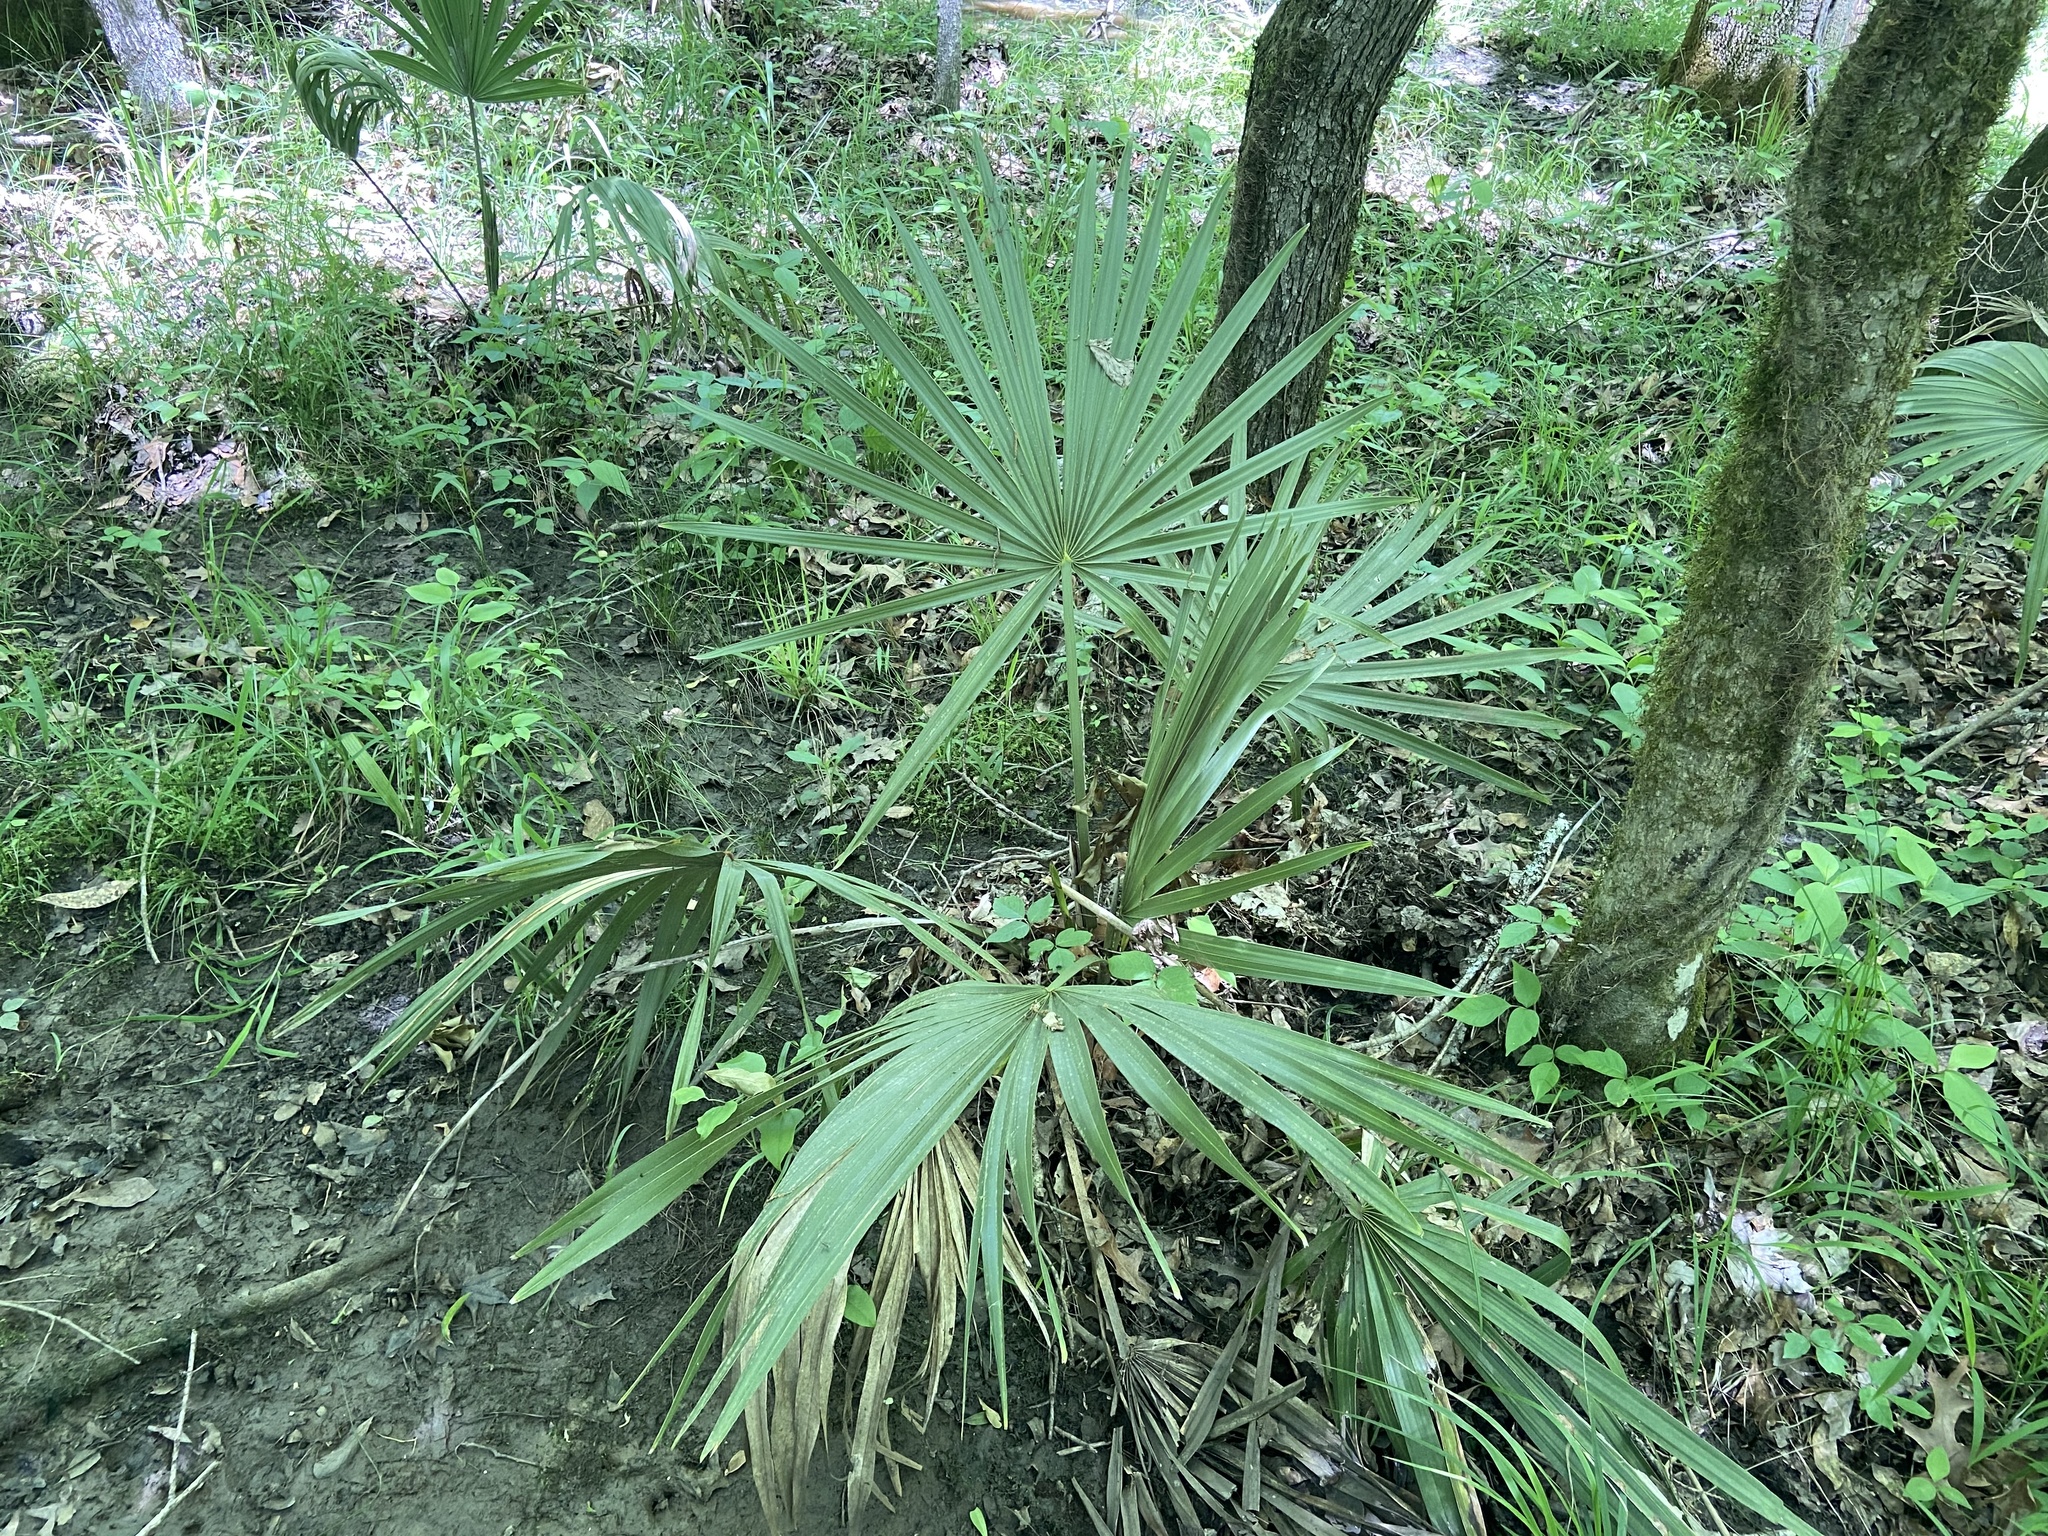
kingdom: Plantae
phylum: Tracheophyta
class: Liliopsida
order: Arecales
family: Arecaceae
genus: Sabal
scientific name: Sabal minor
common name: Dwarf palmetto
